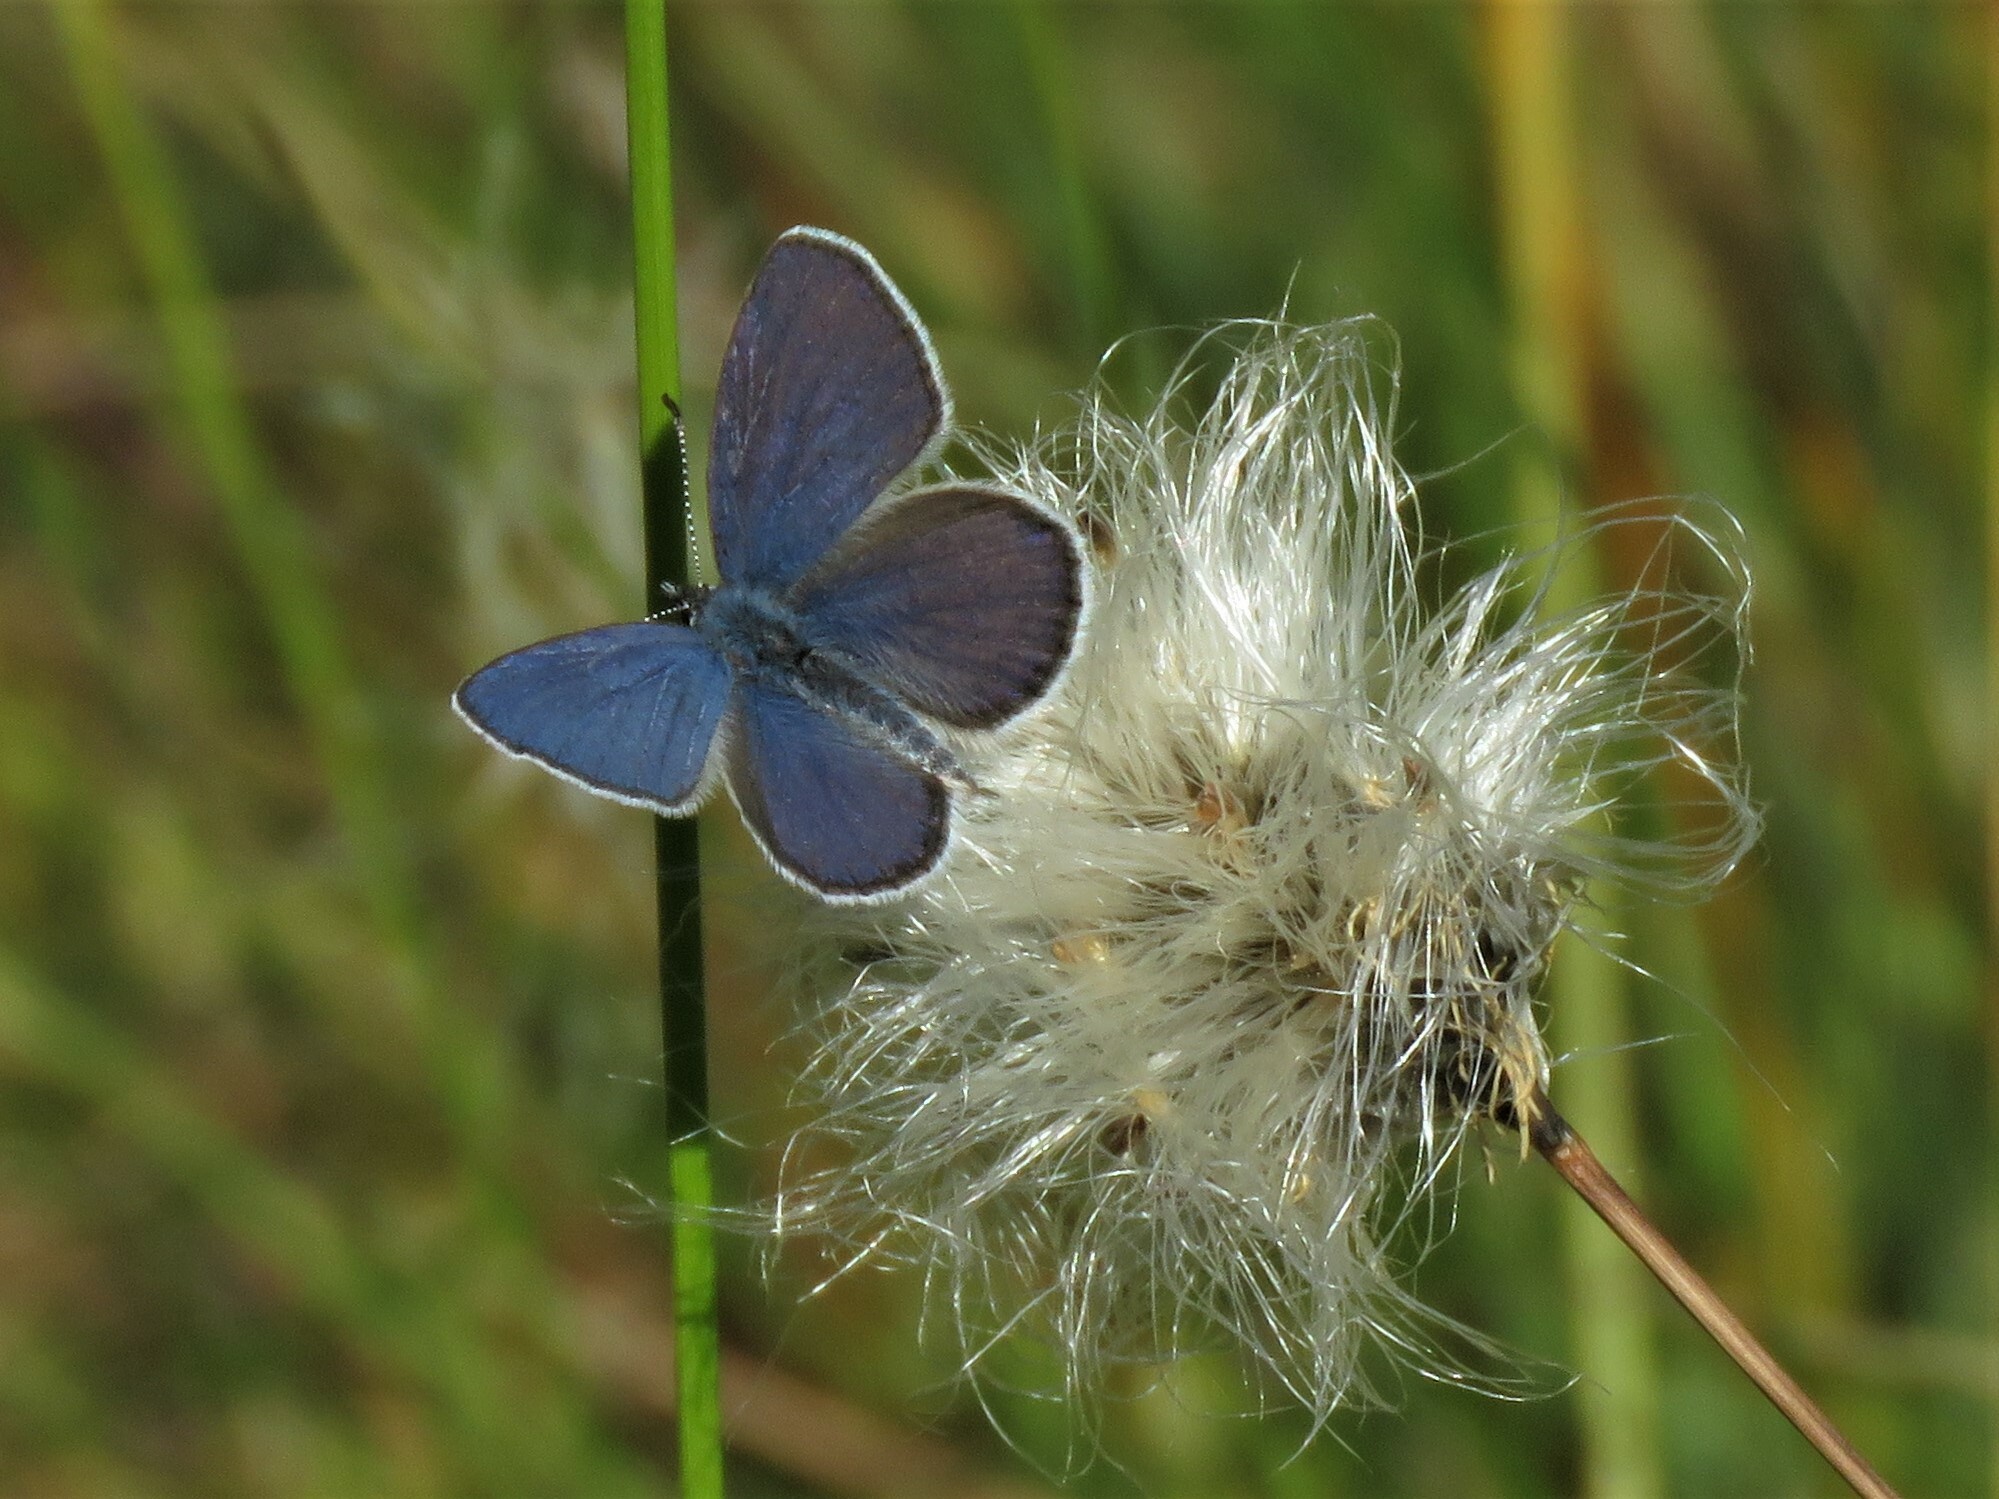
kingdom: Animalia
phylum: Arthropoda
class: Insecta
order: Lepidoptera
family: Lycaenidae
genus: Vacciniina
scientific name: Vacciniina optilete
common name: Cranberry blue
